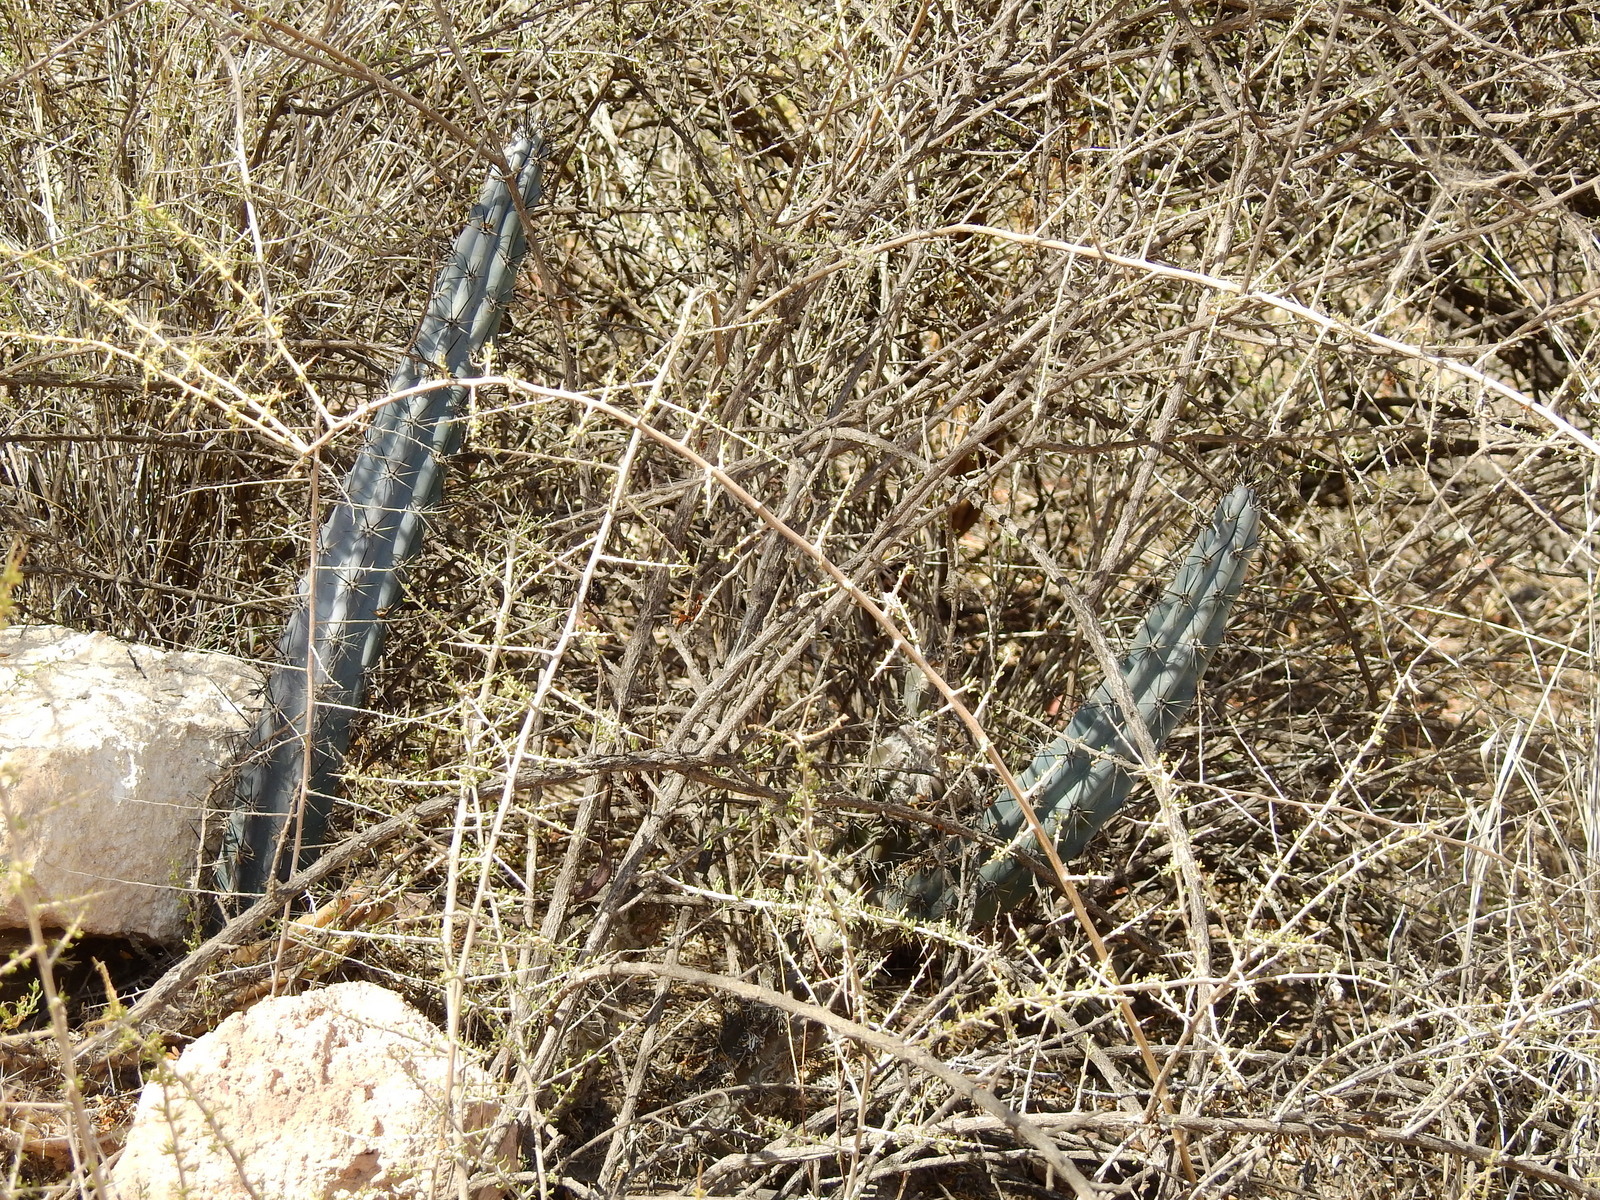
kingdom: Plantae
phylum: Tracheophyta
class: Magnoliopsida
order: Caryophyllales
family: Cactaceae
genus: Cereus
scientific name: Cereus aethiops
